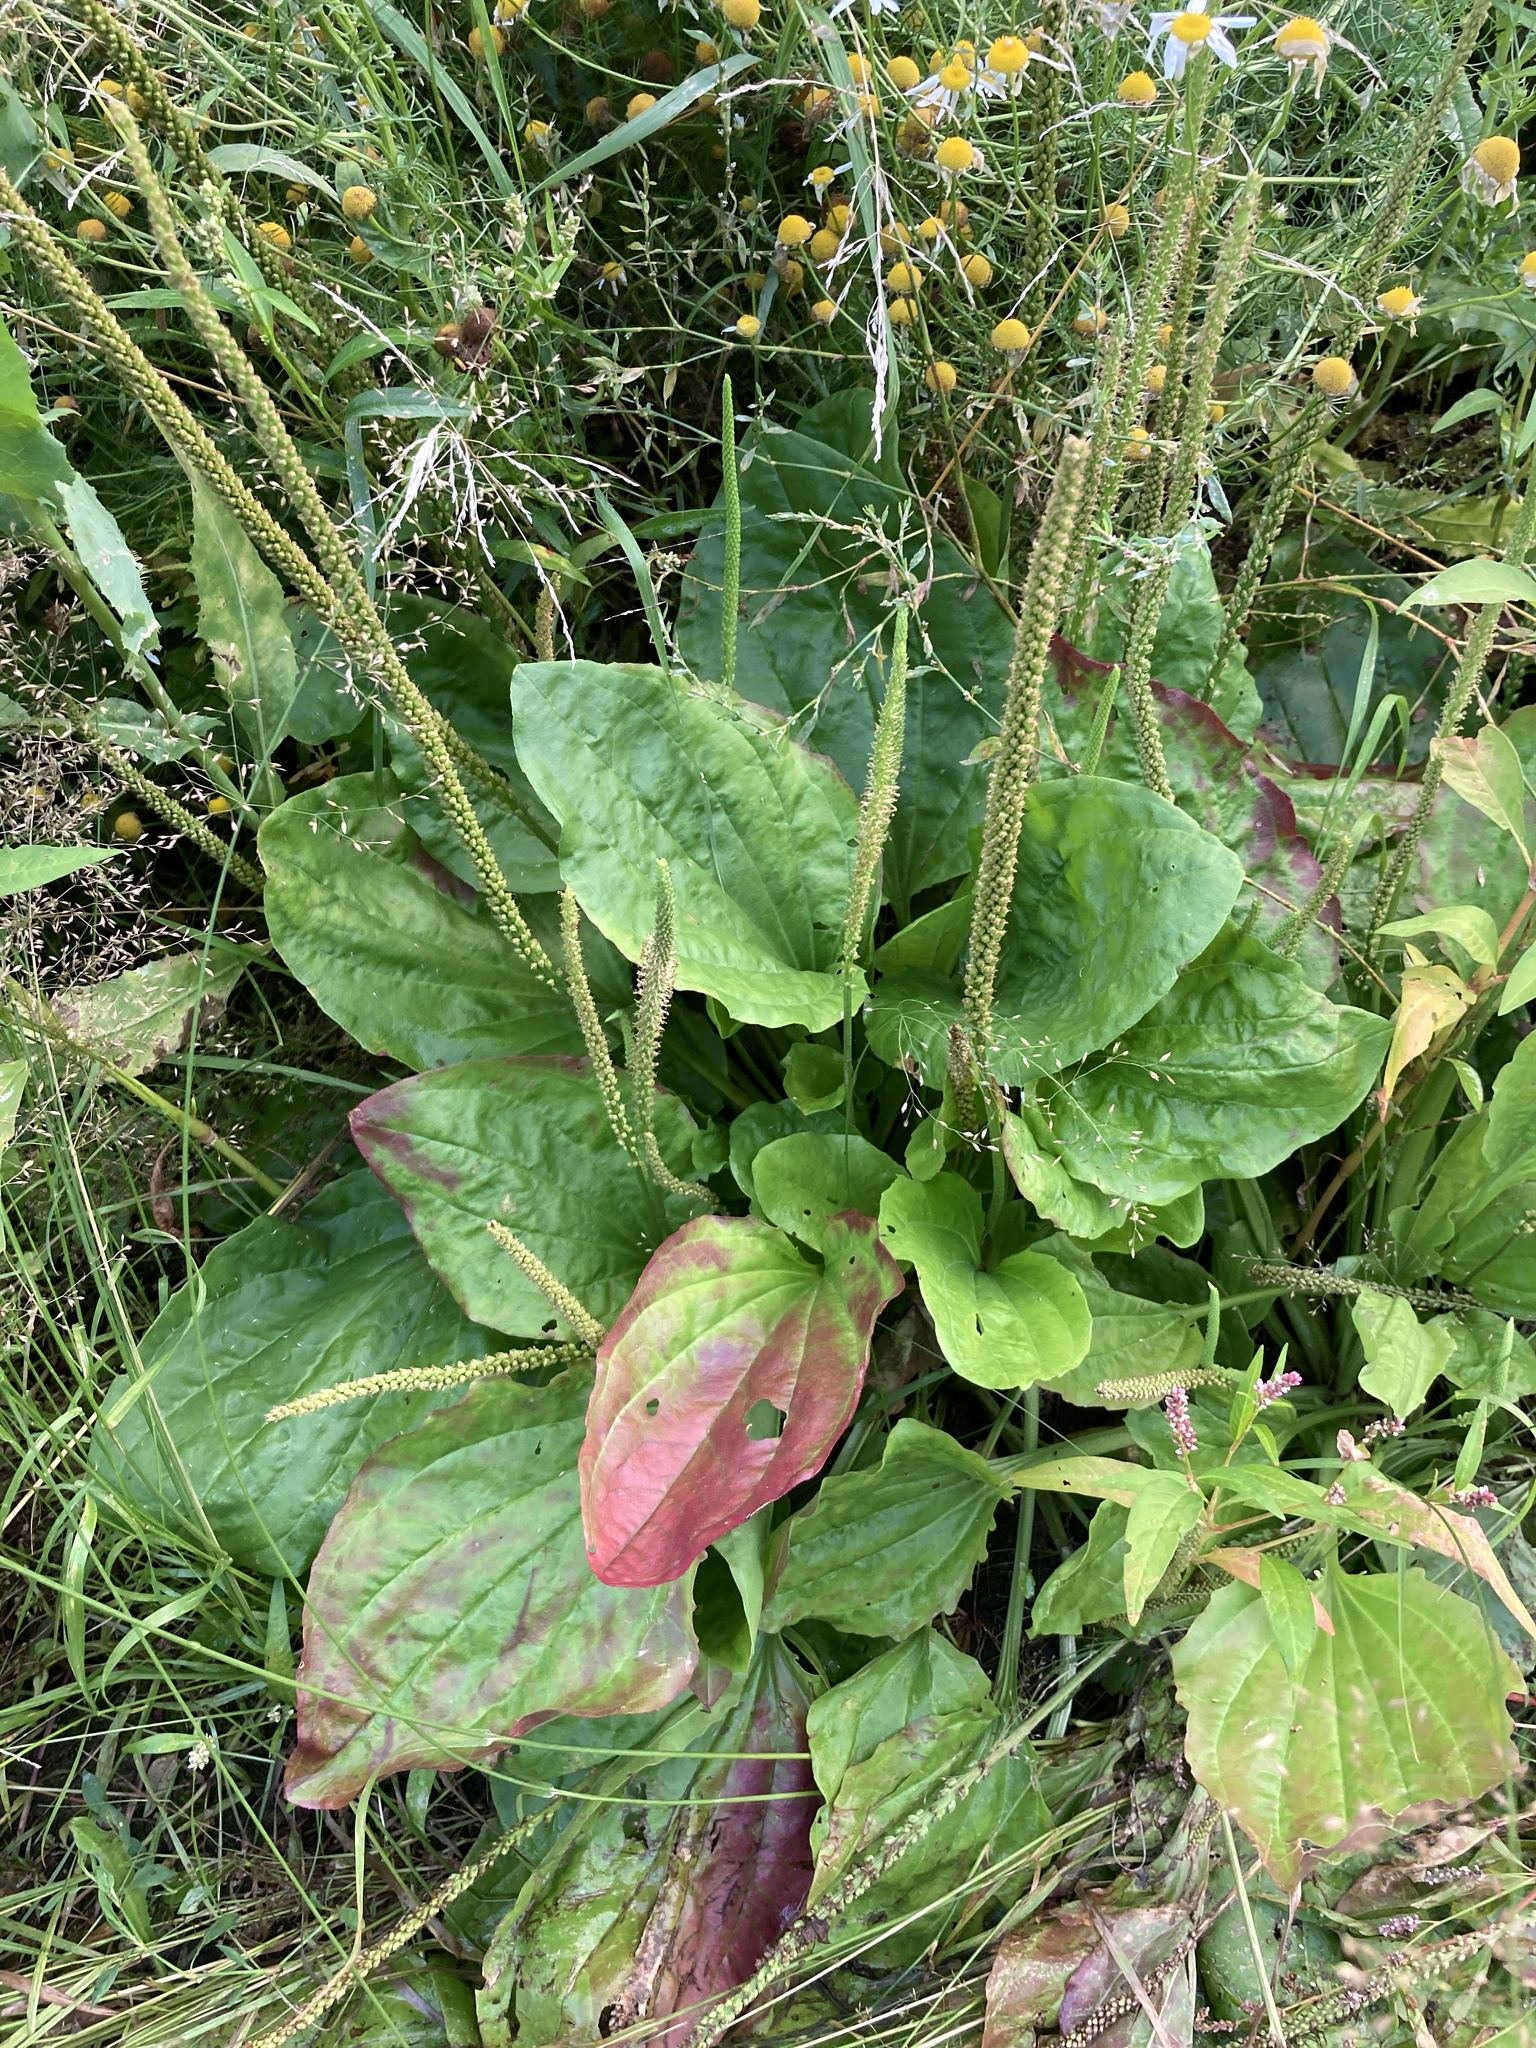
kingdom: Plantae
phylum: Tracheophyta
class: Magnoliopsida
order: Lamiales
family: Plantaginaceae
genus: Plantago
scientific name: Plantago major
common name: Common plantain
